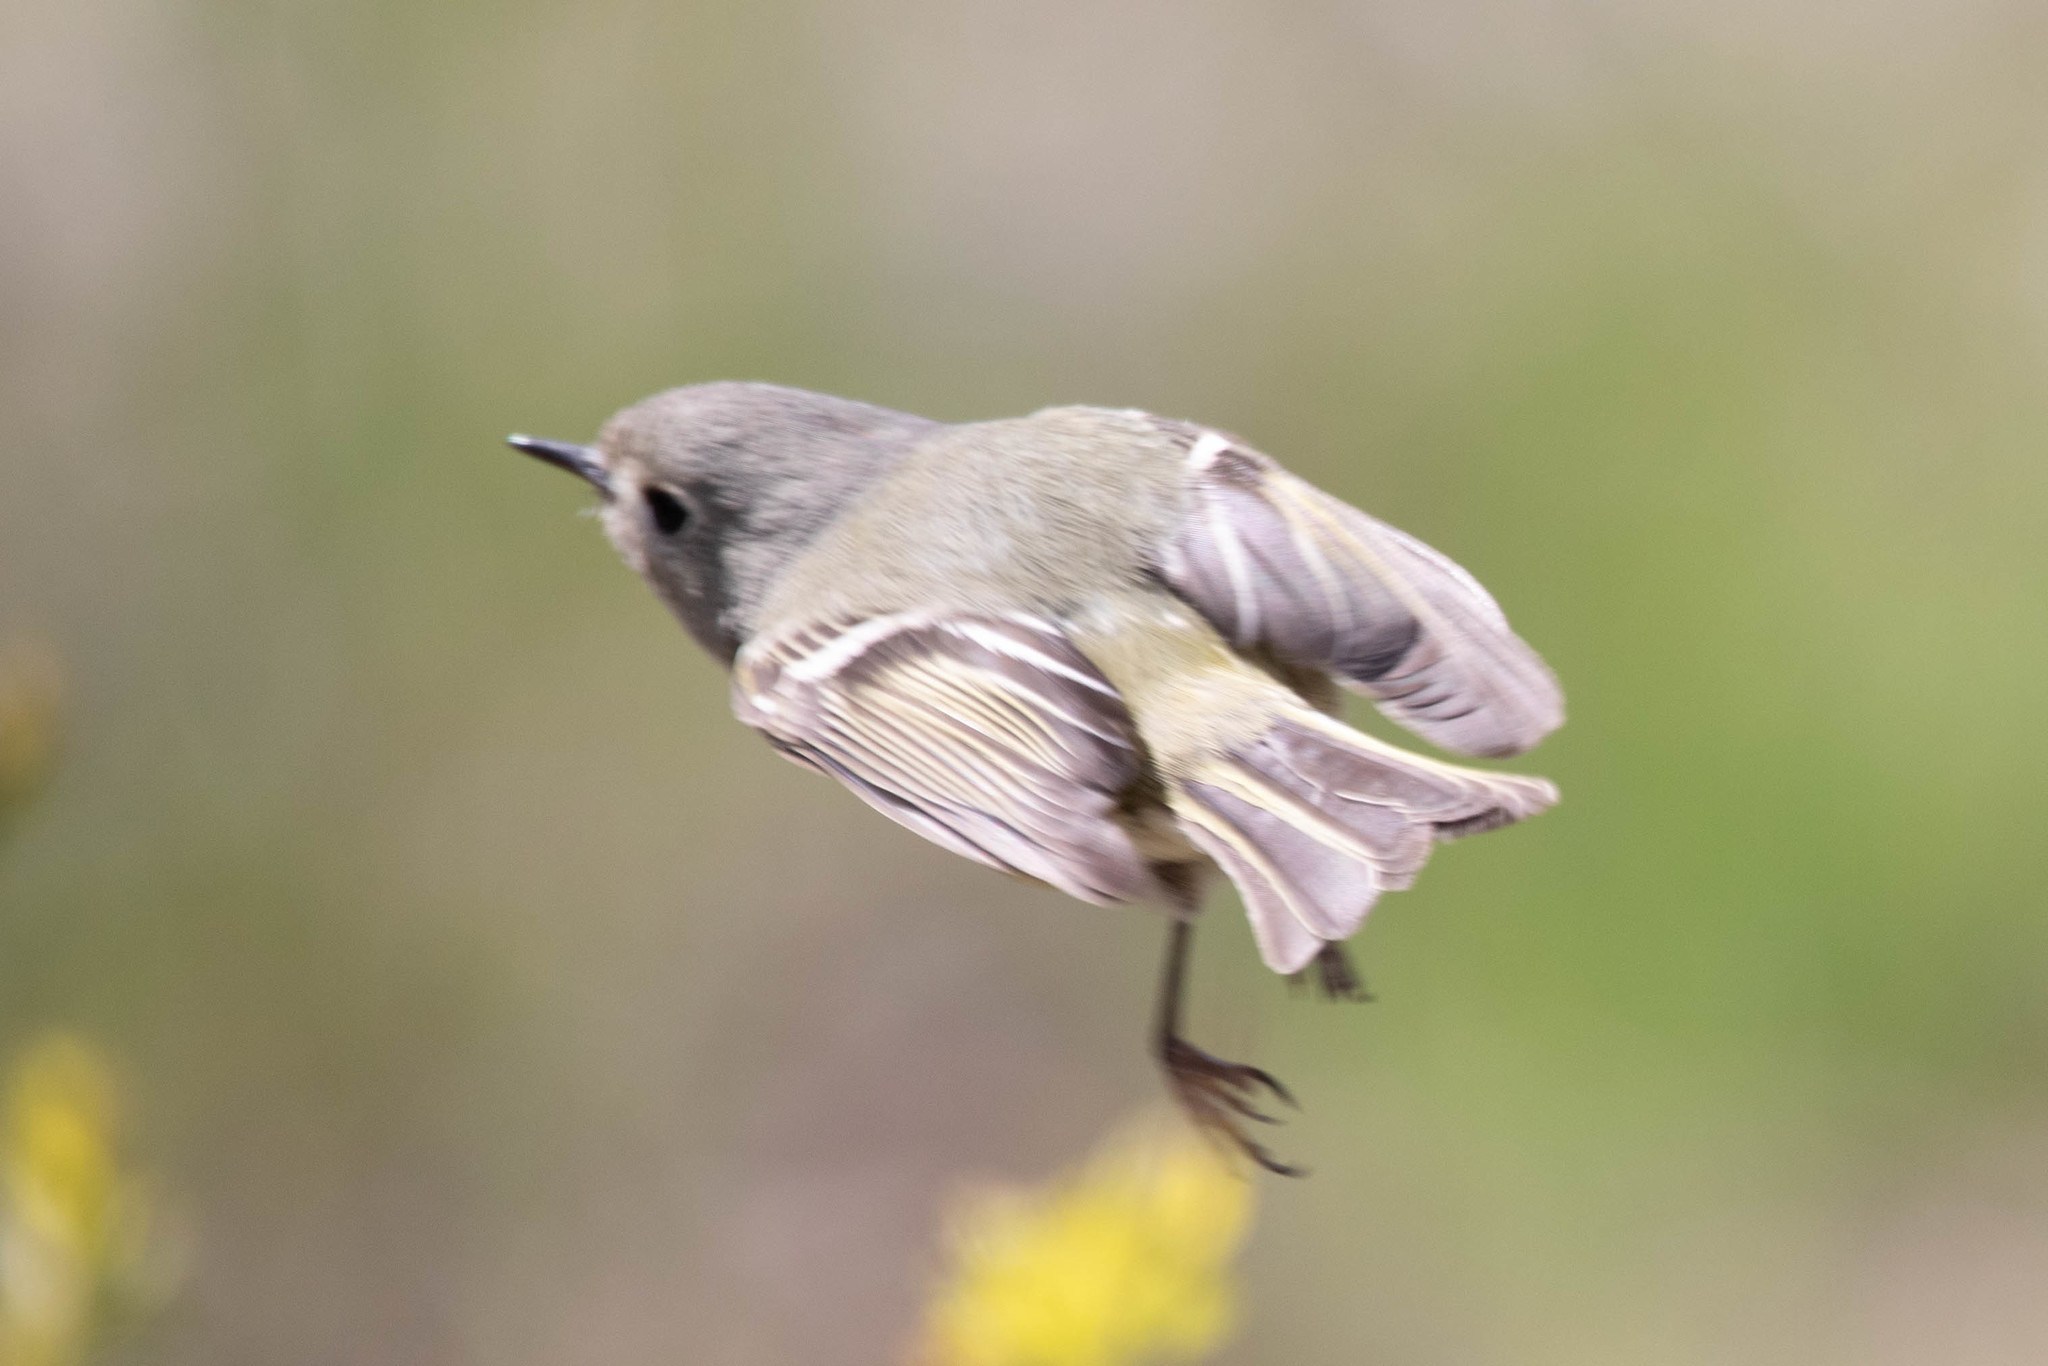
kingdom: Animalia
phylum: Chordata
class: Aves
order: Passeriformes
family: Regulidae
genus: Regulus
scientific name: Regulus calendula
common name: Ruby-crowned kinglet
